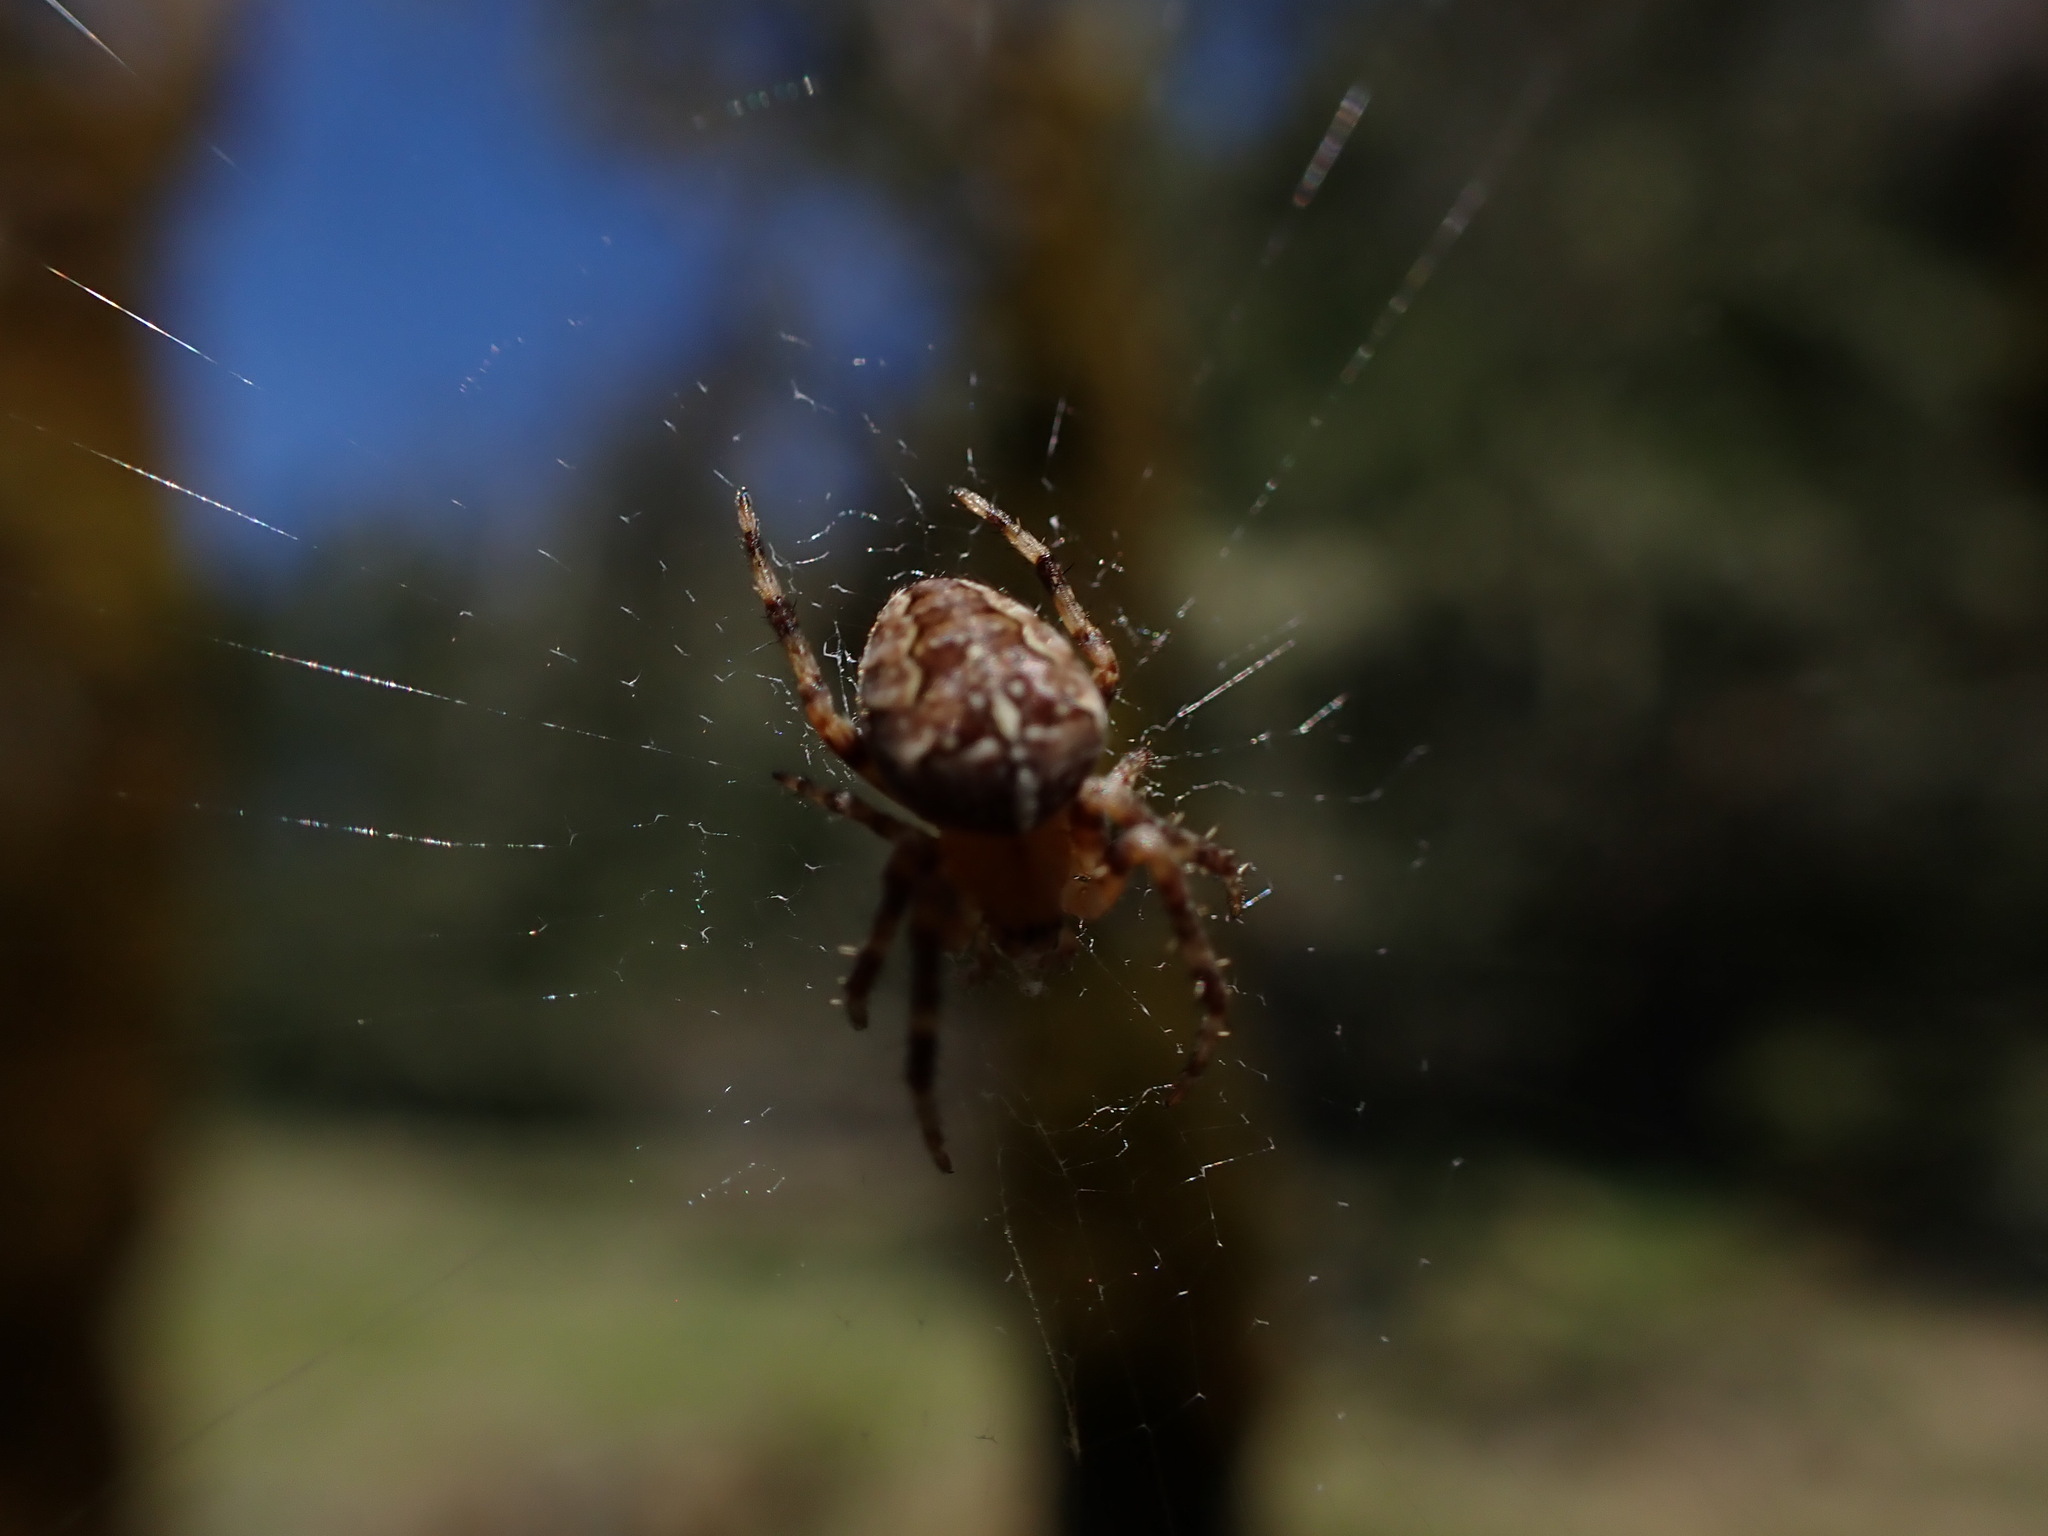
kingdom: Animalia
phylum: Arthropoda
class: Arachnida
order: Araneae
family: Araneidae
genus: Araneus
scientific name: Araneus diadematus
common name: Cross orbweaver
